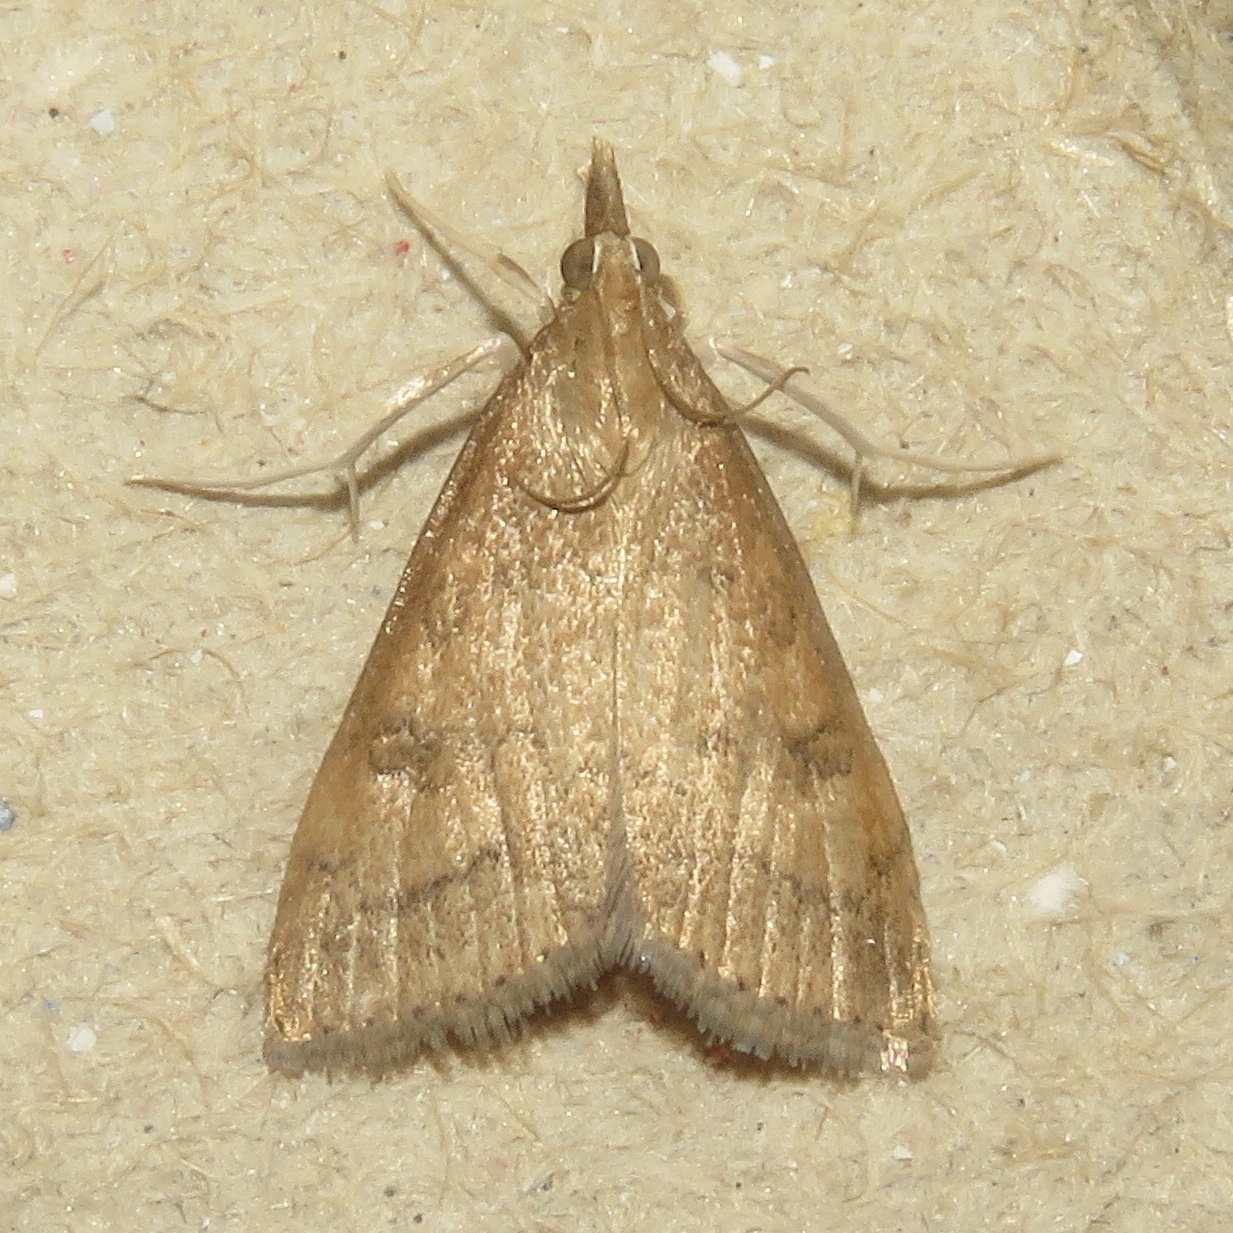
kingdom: Animalia
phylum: Arthropoda
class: Insecta
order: Lepidoptera
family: Crambidae
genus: Udea
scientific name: Udea rubigalis
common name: Celery leaftier moth
